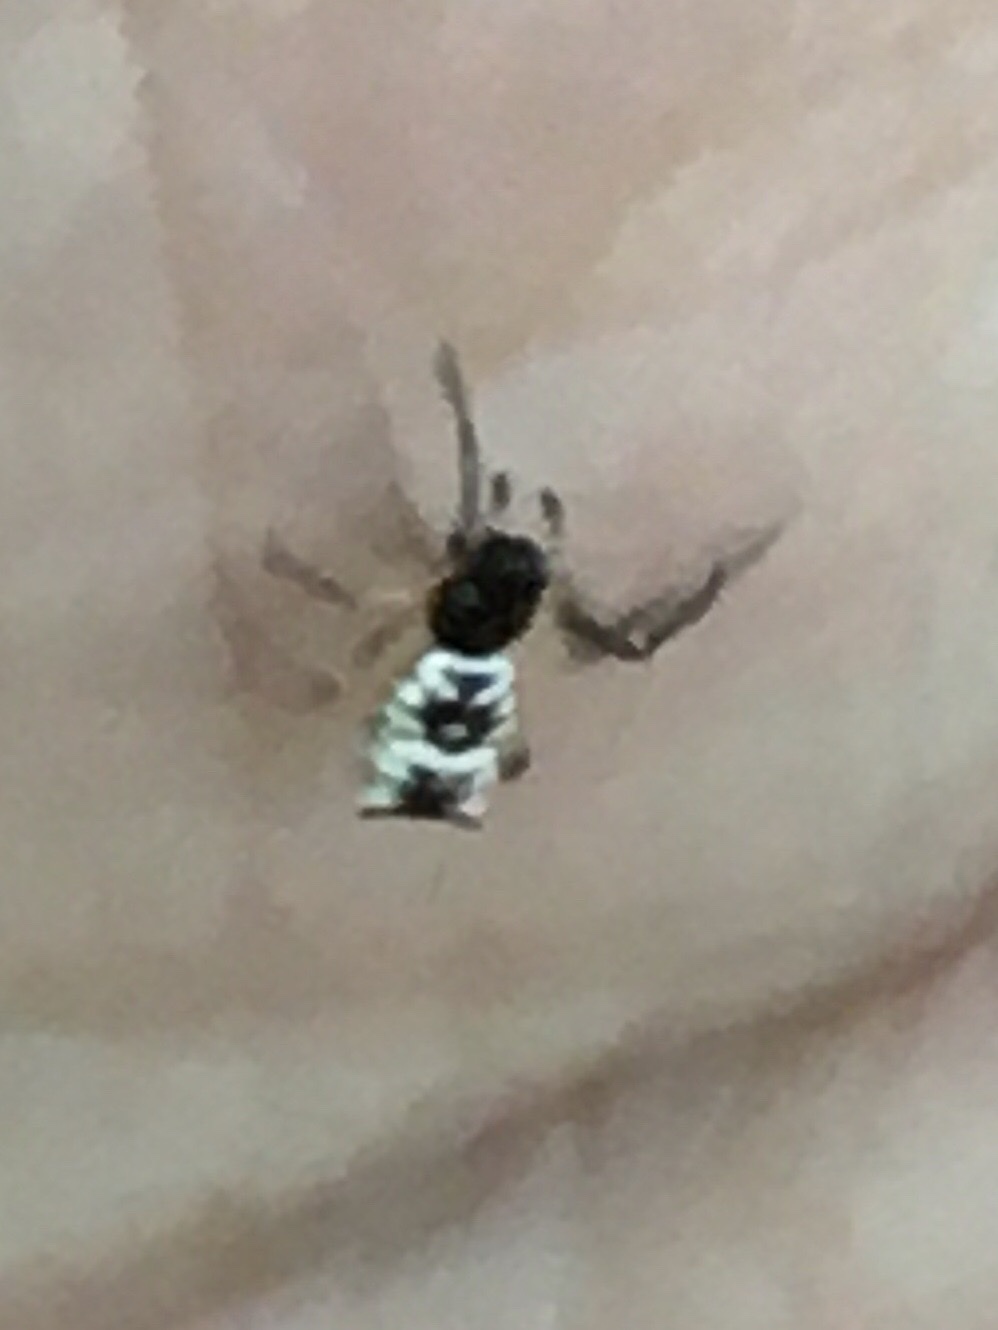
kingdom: Animalia
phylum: Arthropoda
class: Arachnida
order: Araneae
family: Araneidae
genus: Micrathena
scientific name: Micrathena mitrata
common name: Orb weavers
